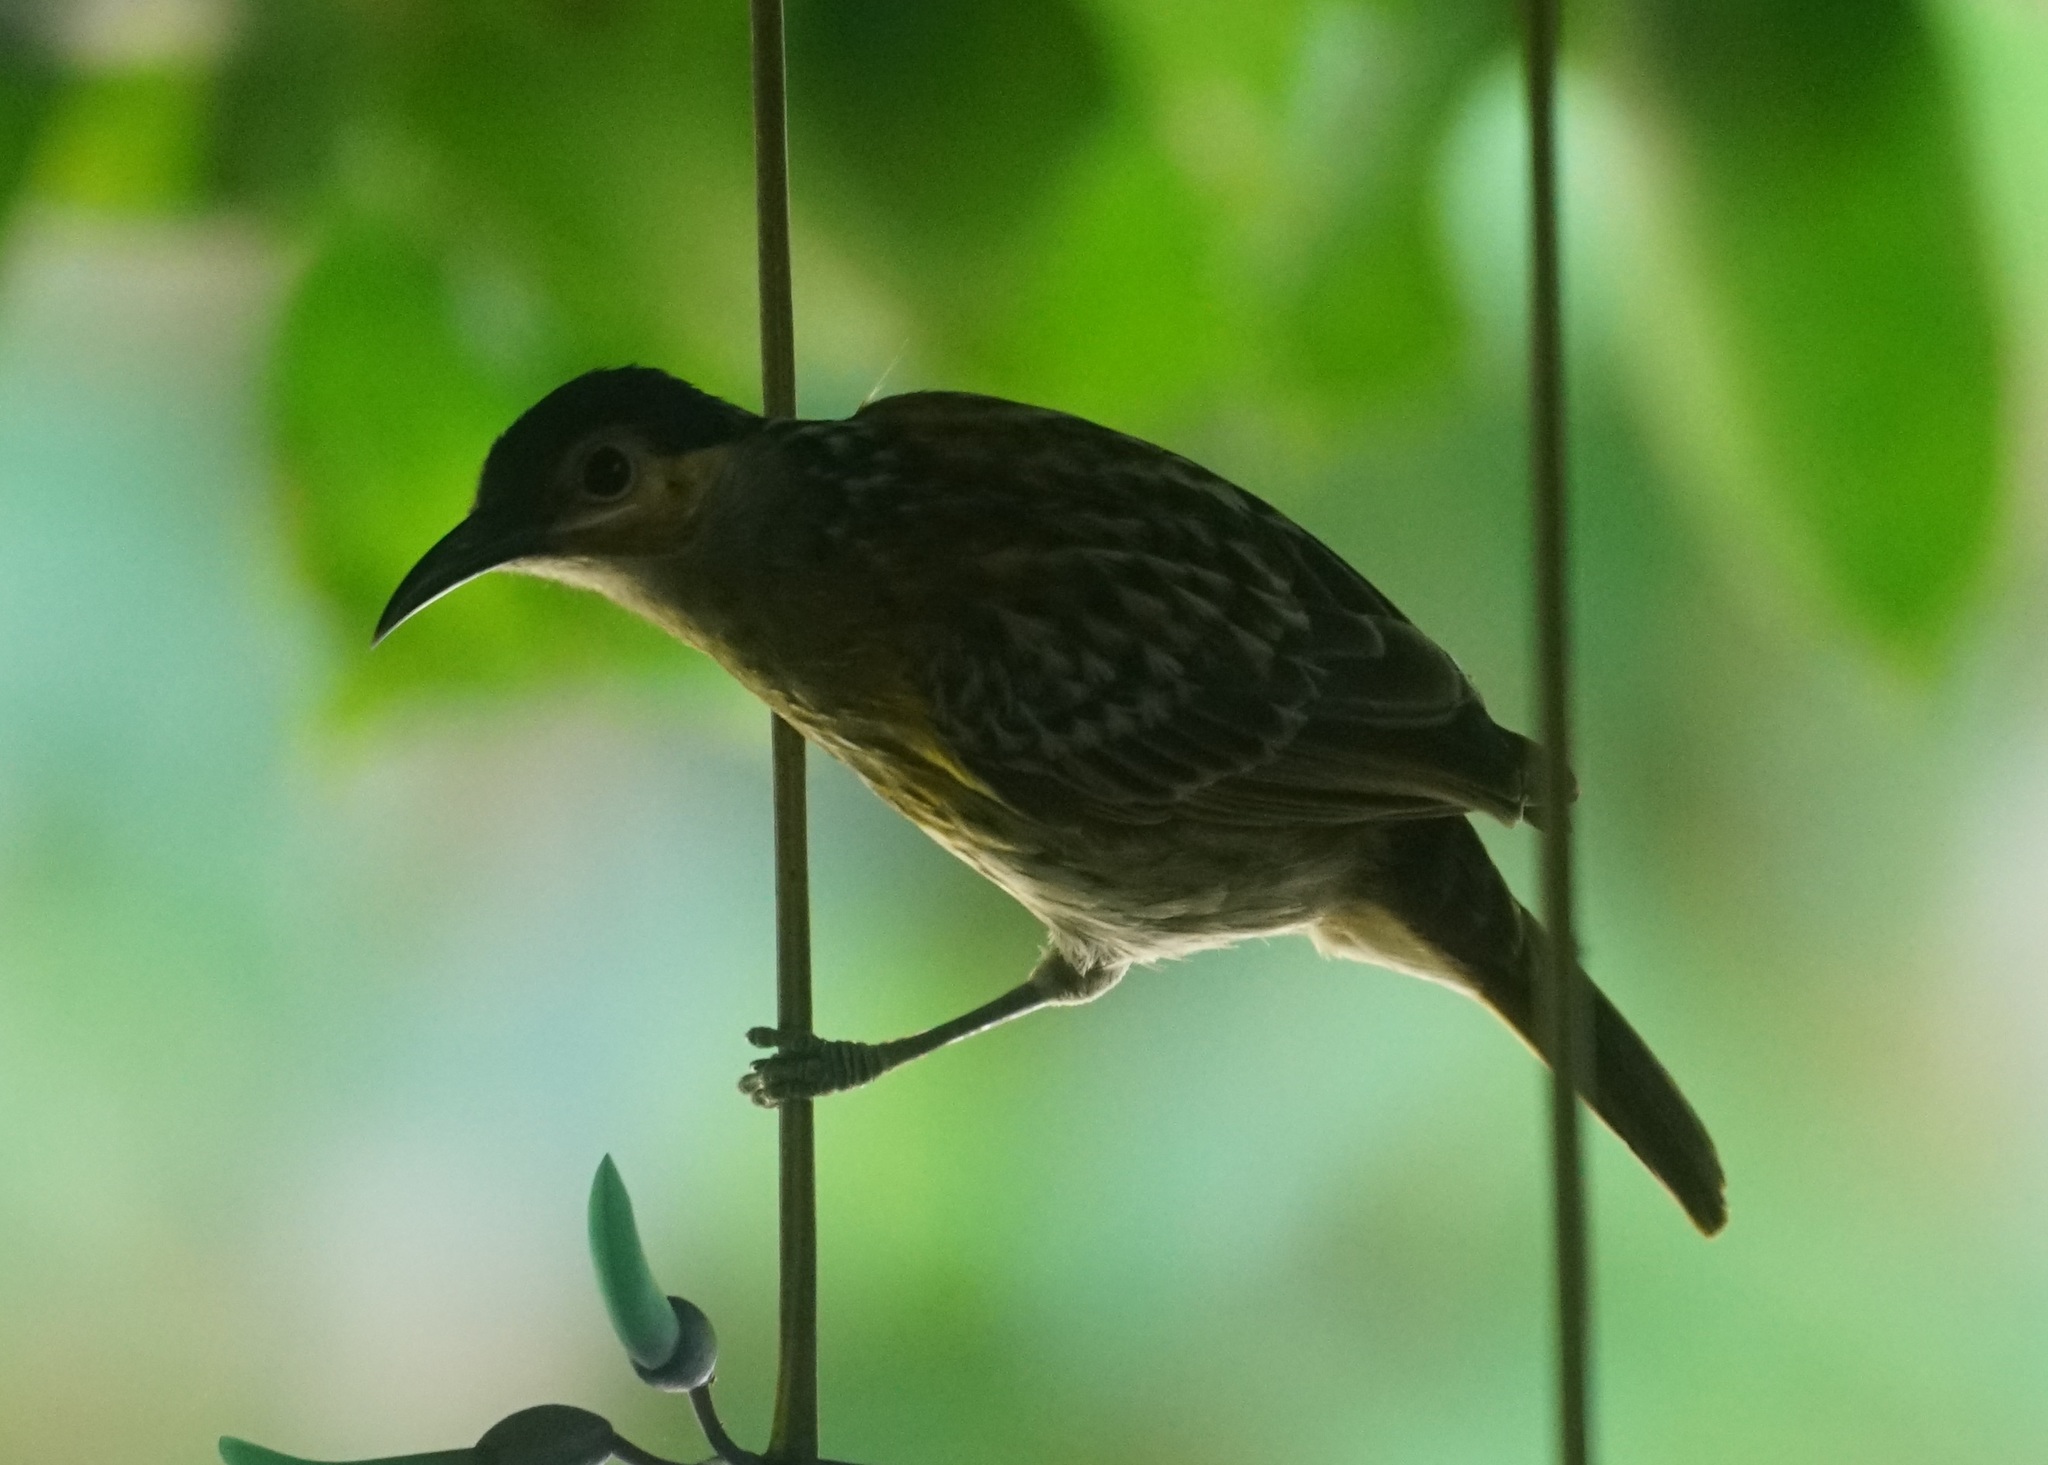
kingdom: Animalia
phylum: Chordata
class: Aves
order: Passeriformes
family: Meliphagidae
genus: Xanthotis
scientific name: Xanthotis macleayanus
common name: Macleay's honeyeater
